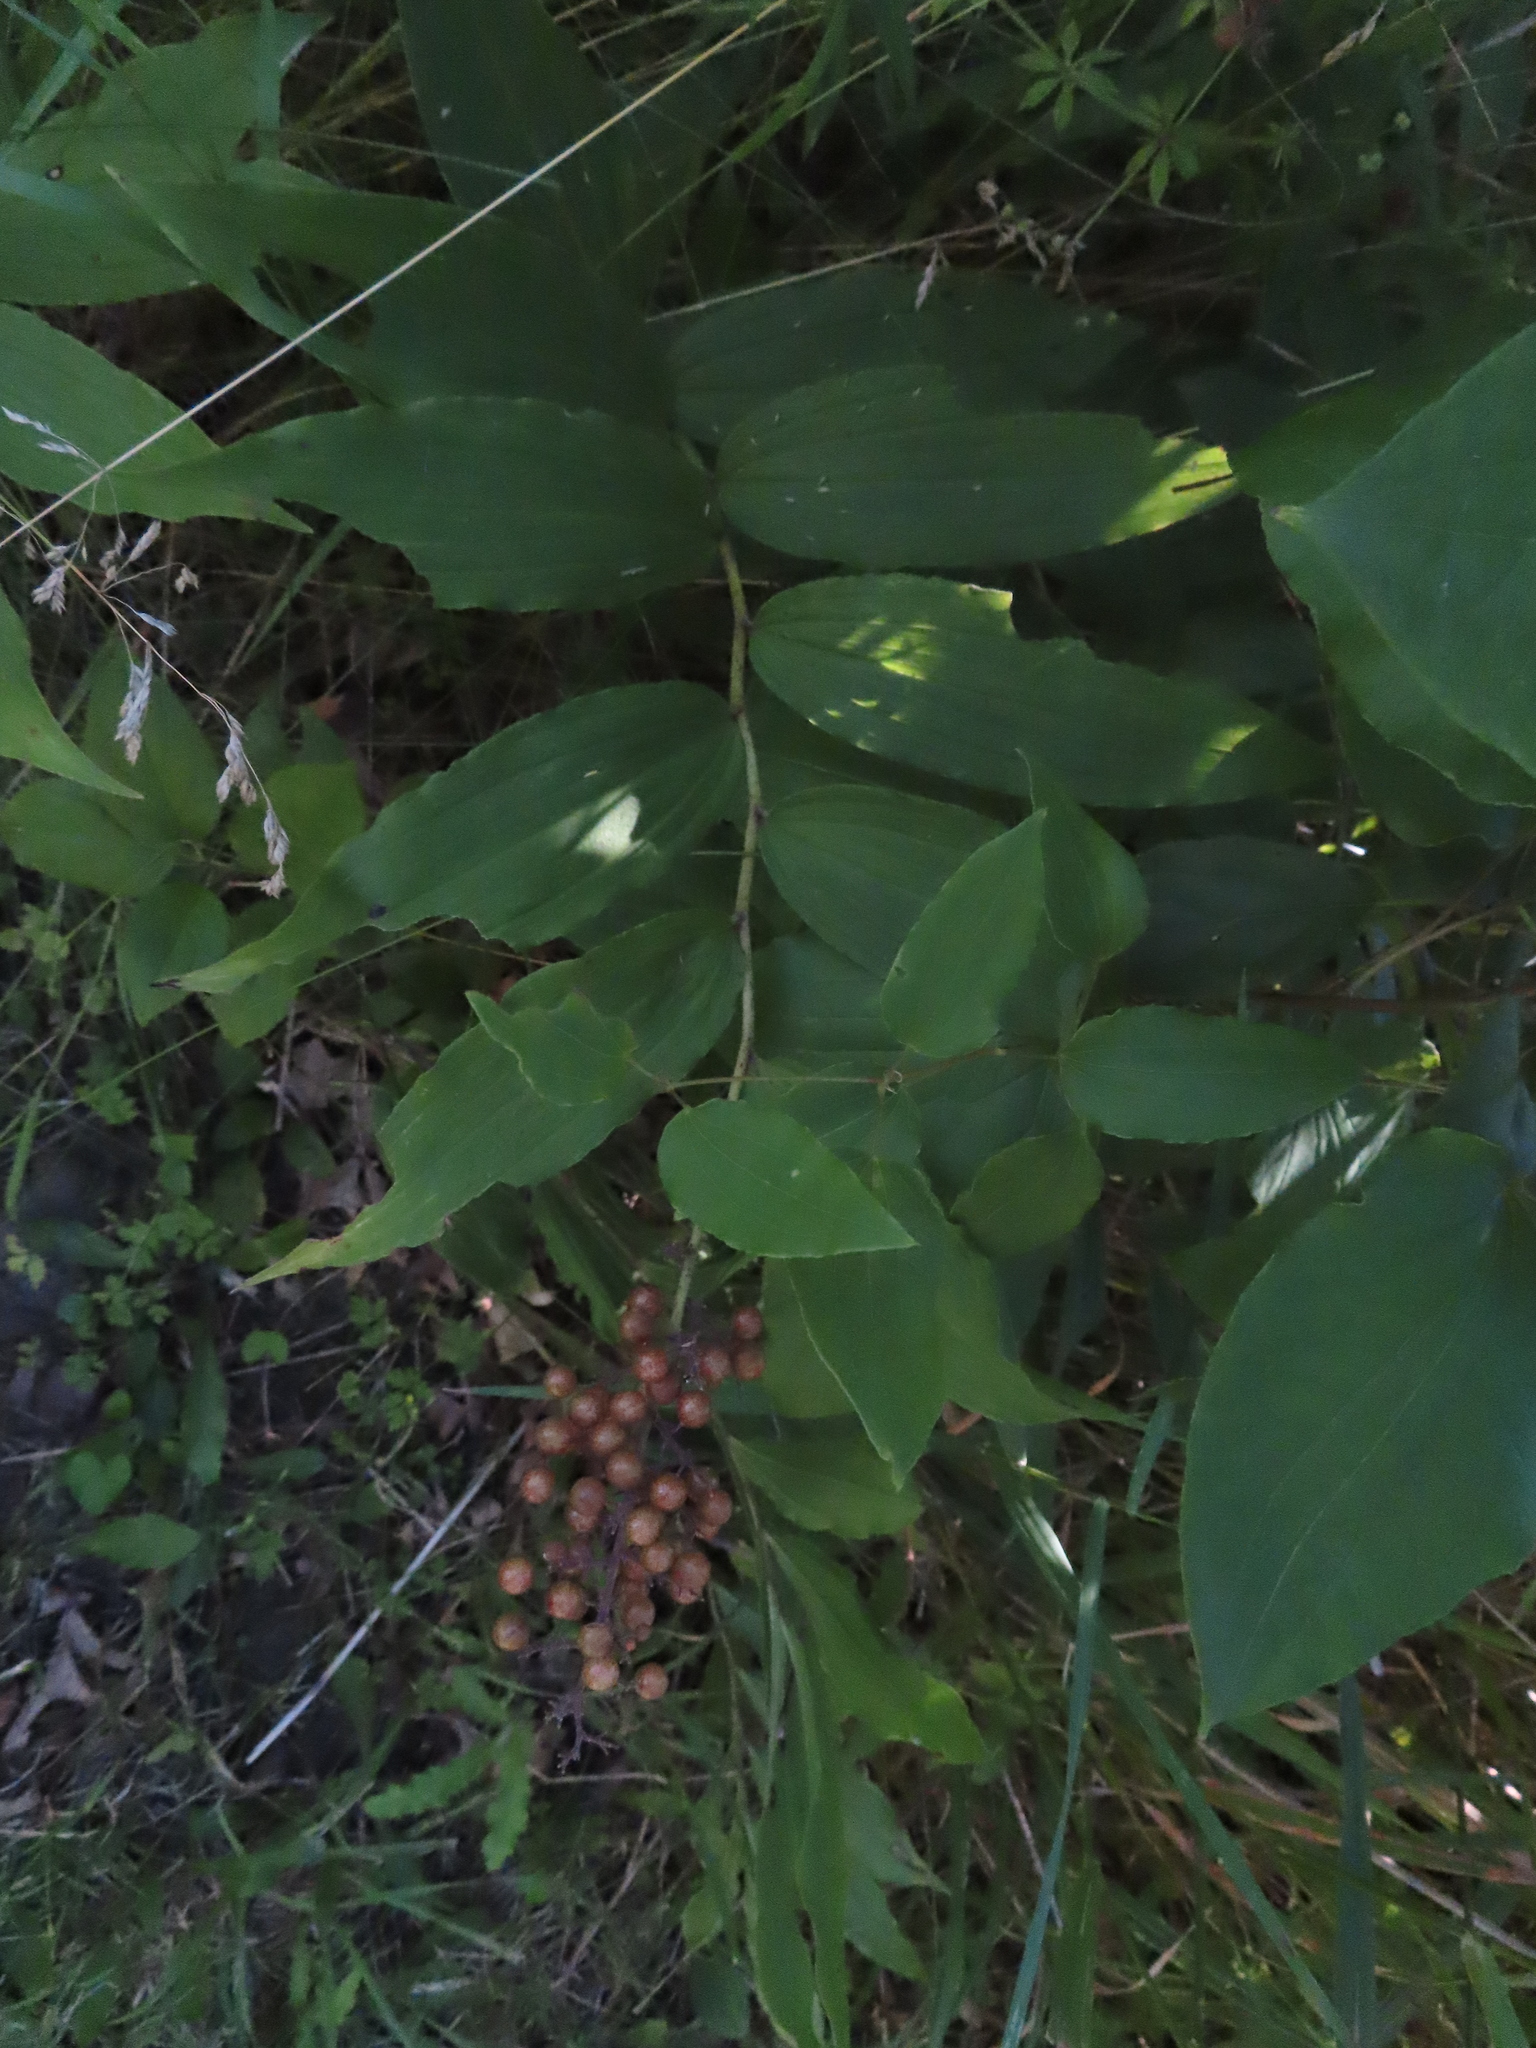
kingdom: Plantae
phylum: Tracheophyta
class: Liliopsida
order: Asparagales
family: Asparagaceae
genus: Maianthemum
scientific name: Maianthemum racemosum
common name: False spikenard
